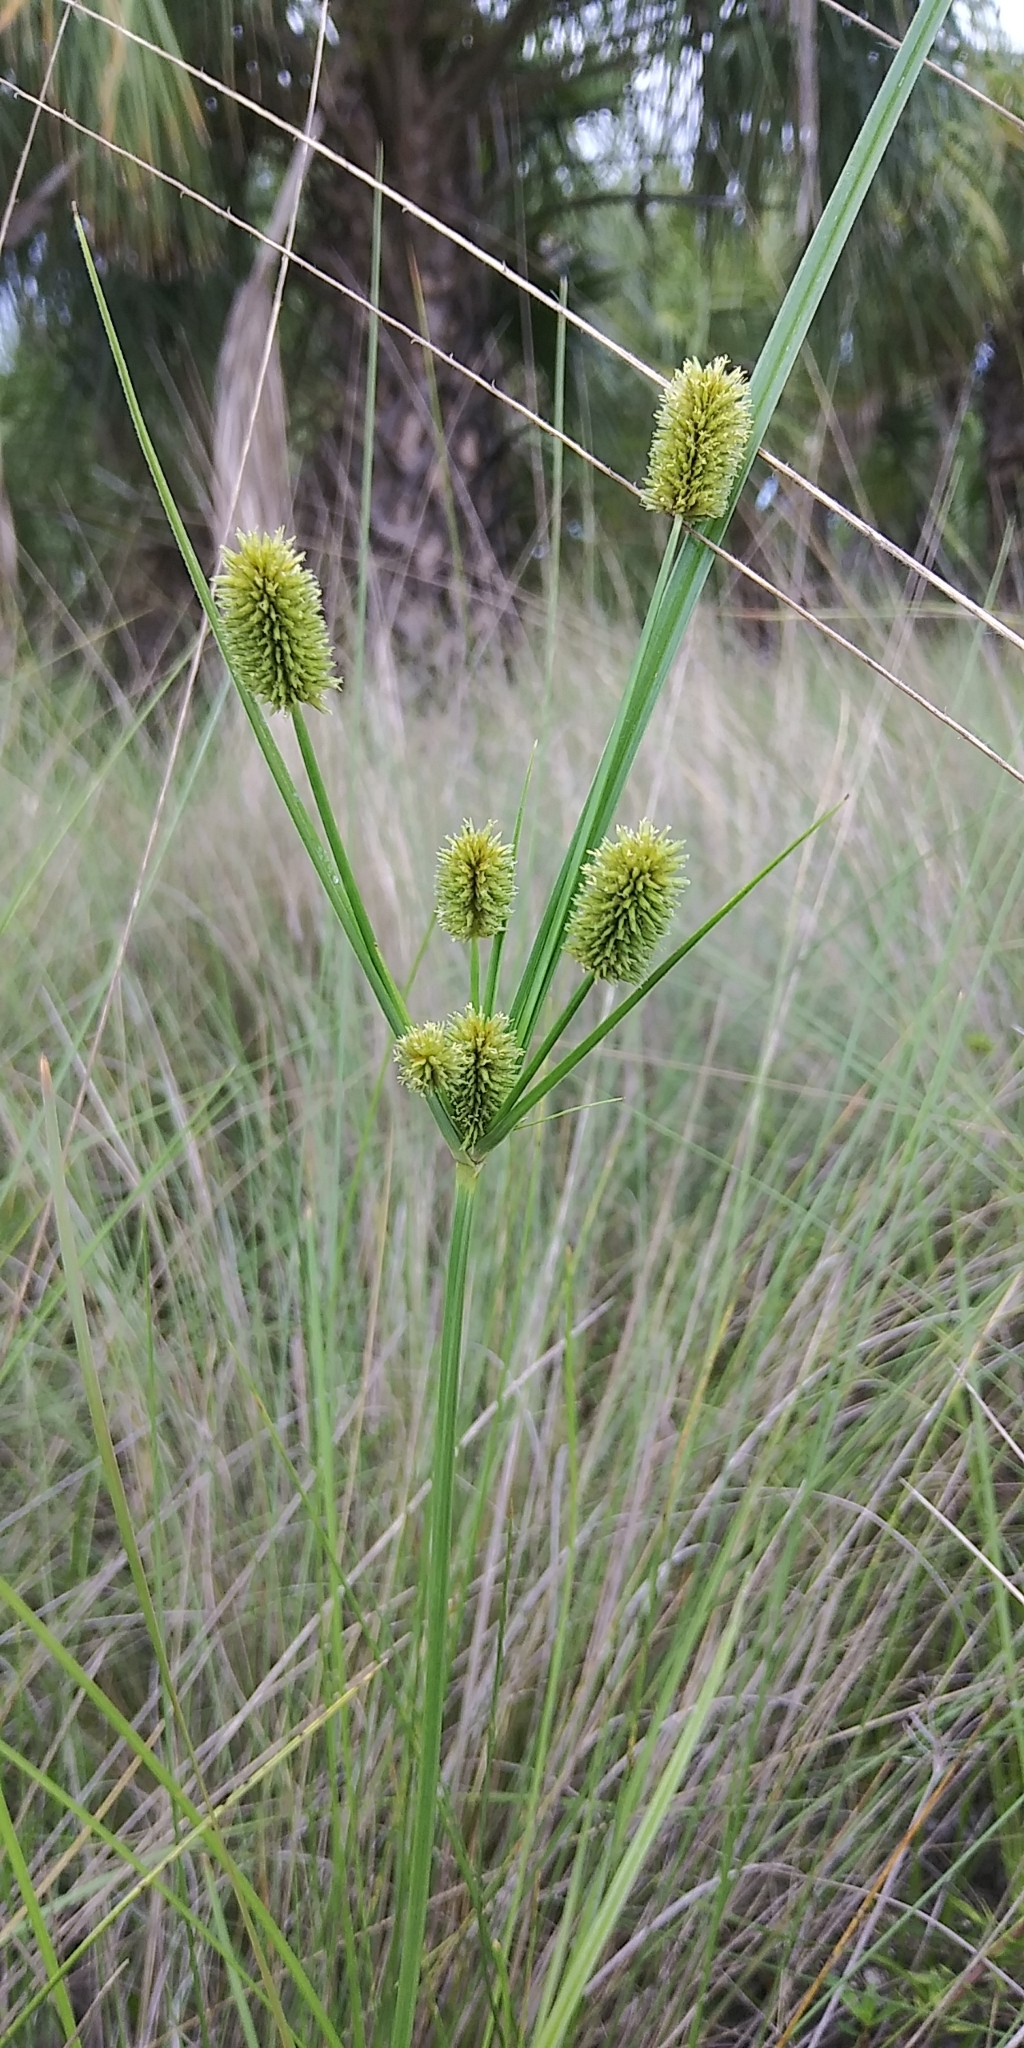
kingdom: Plantae
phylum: Tracheophyta
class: Liliopsida
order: Poales
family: Cyperaceae
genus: Cyperus
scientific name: Cyperus retrorsus
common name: Pinebarren flat sedge
